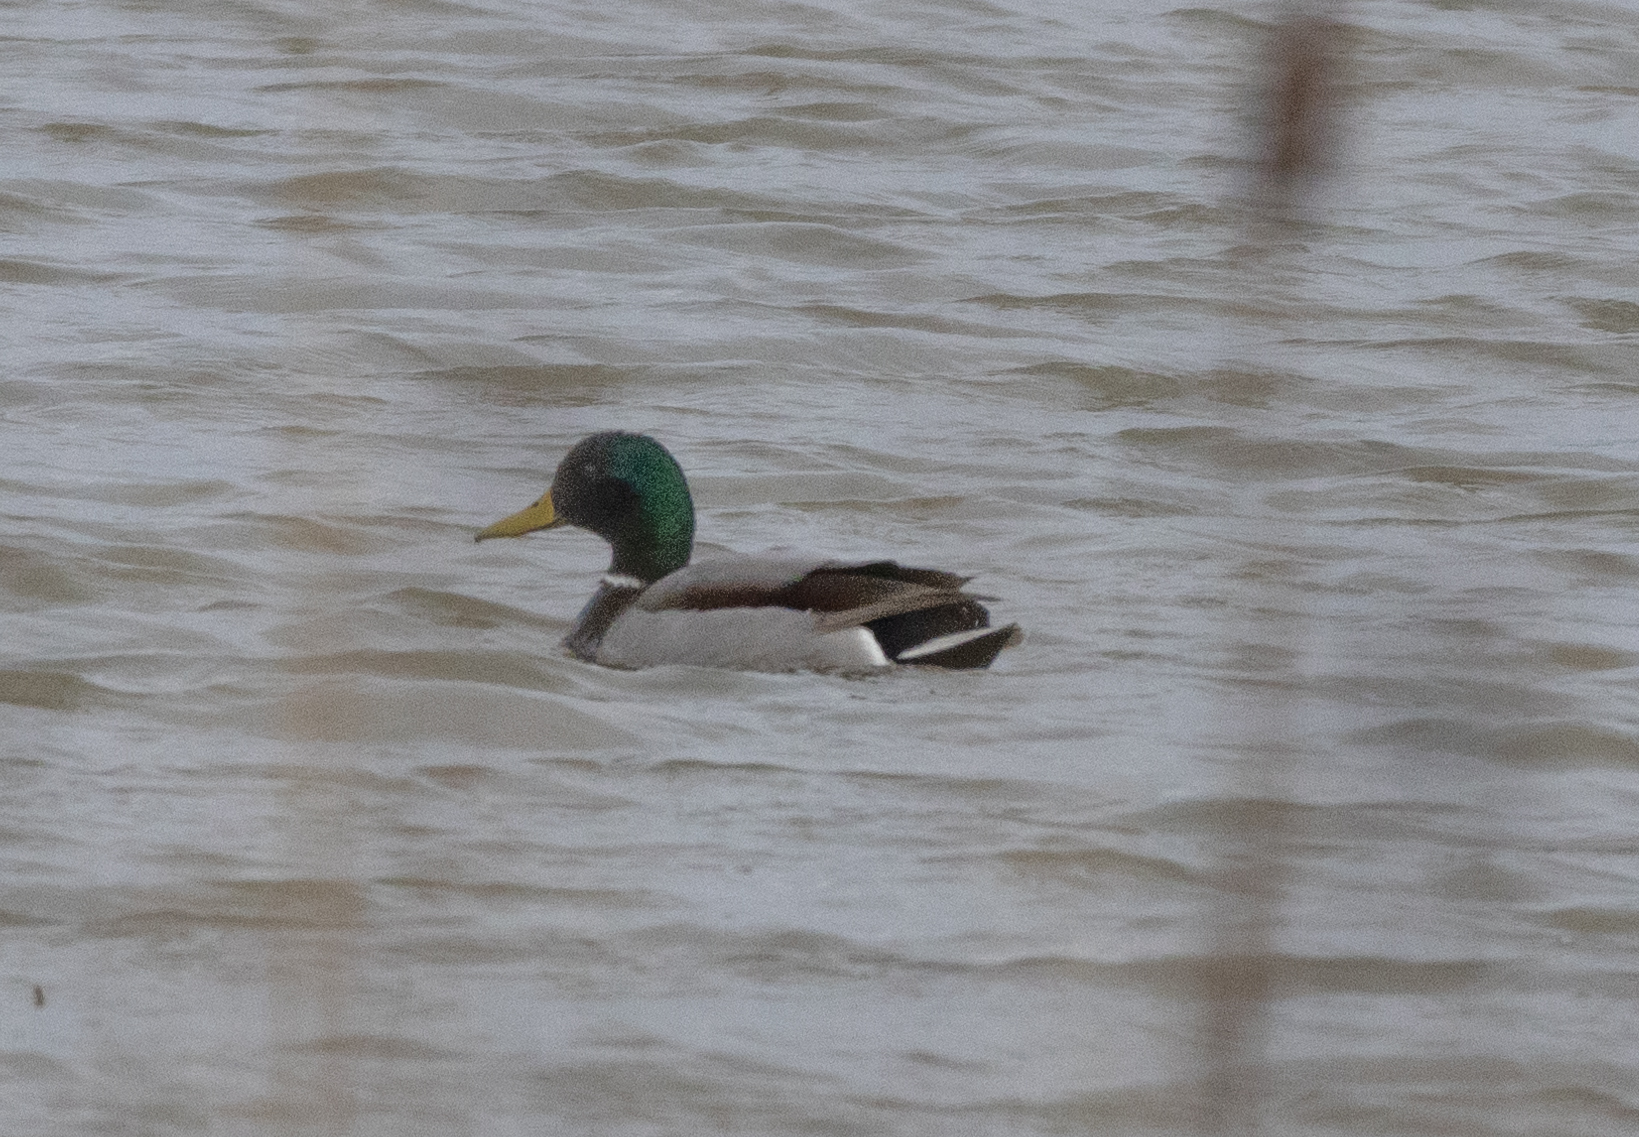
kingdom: Animalia
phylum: Chordata
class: Aves
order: Anseriformes
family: Anatidae
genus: Anas
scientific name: Anas platyrhynchos
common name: Mallard
